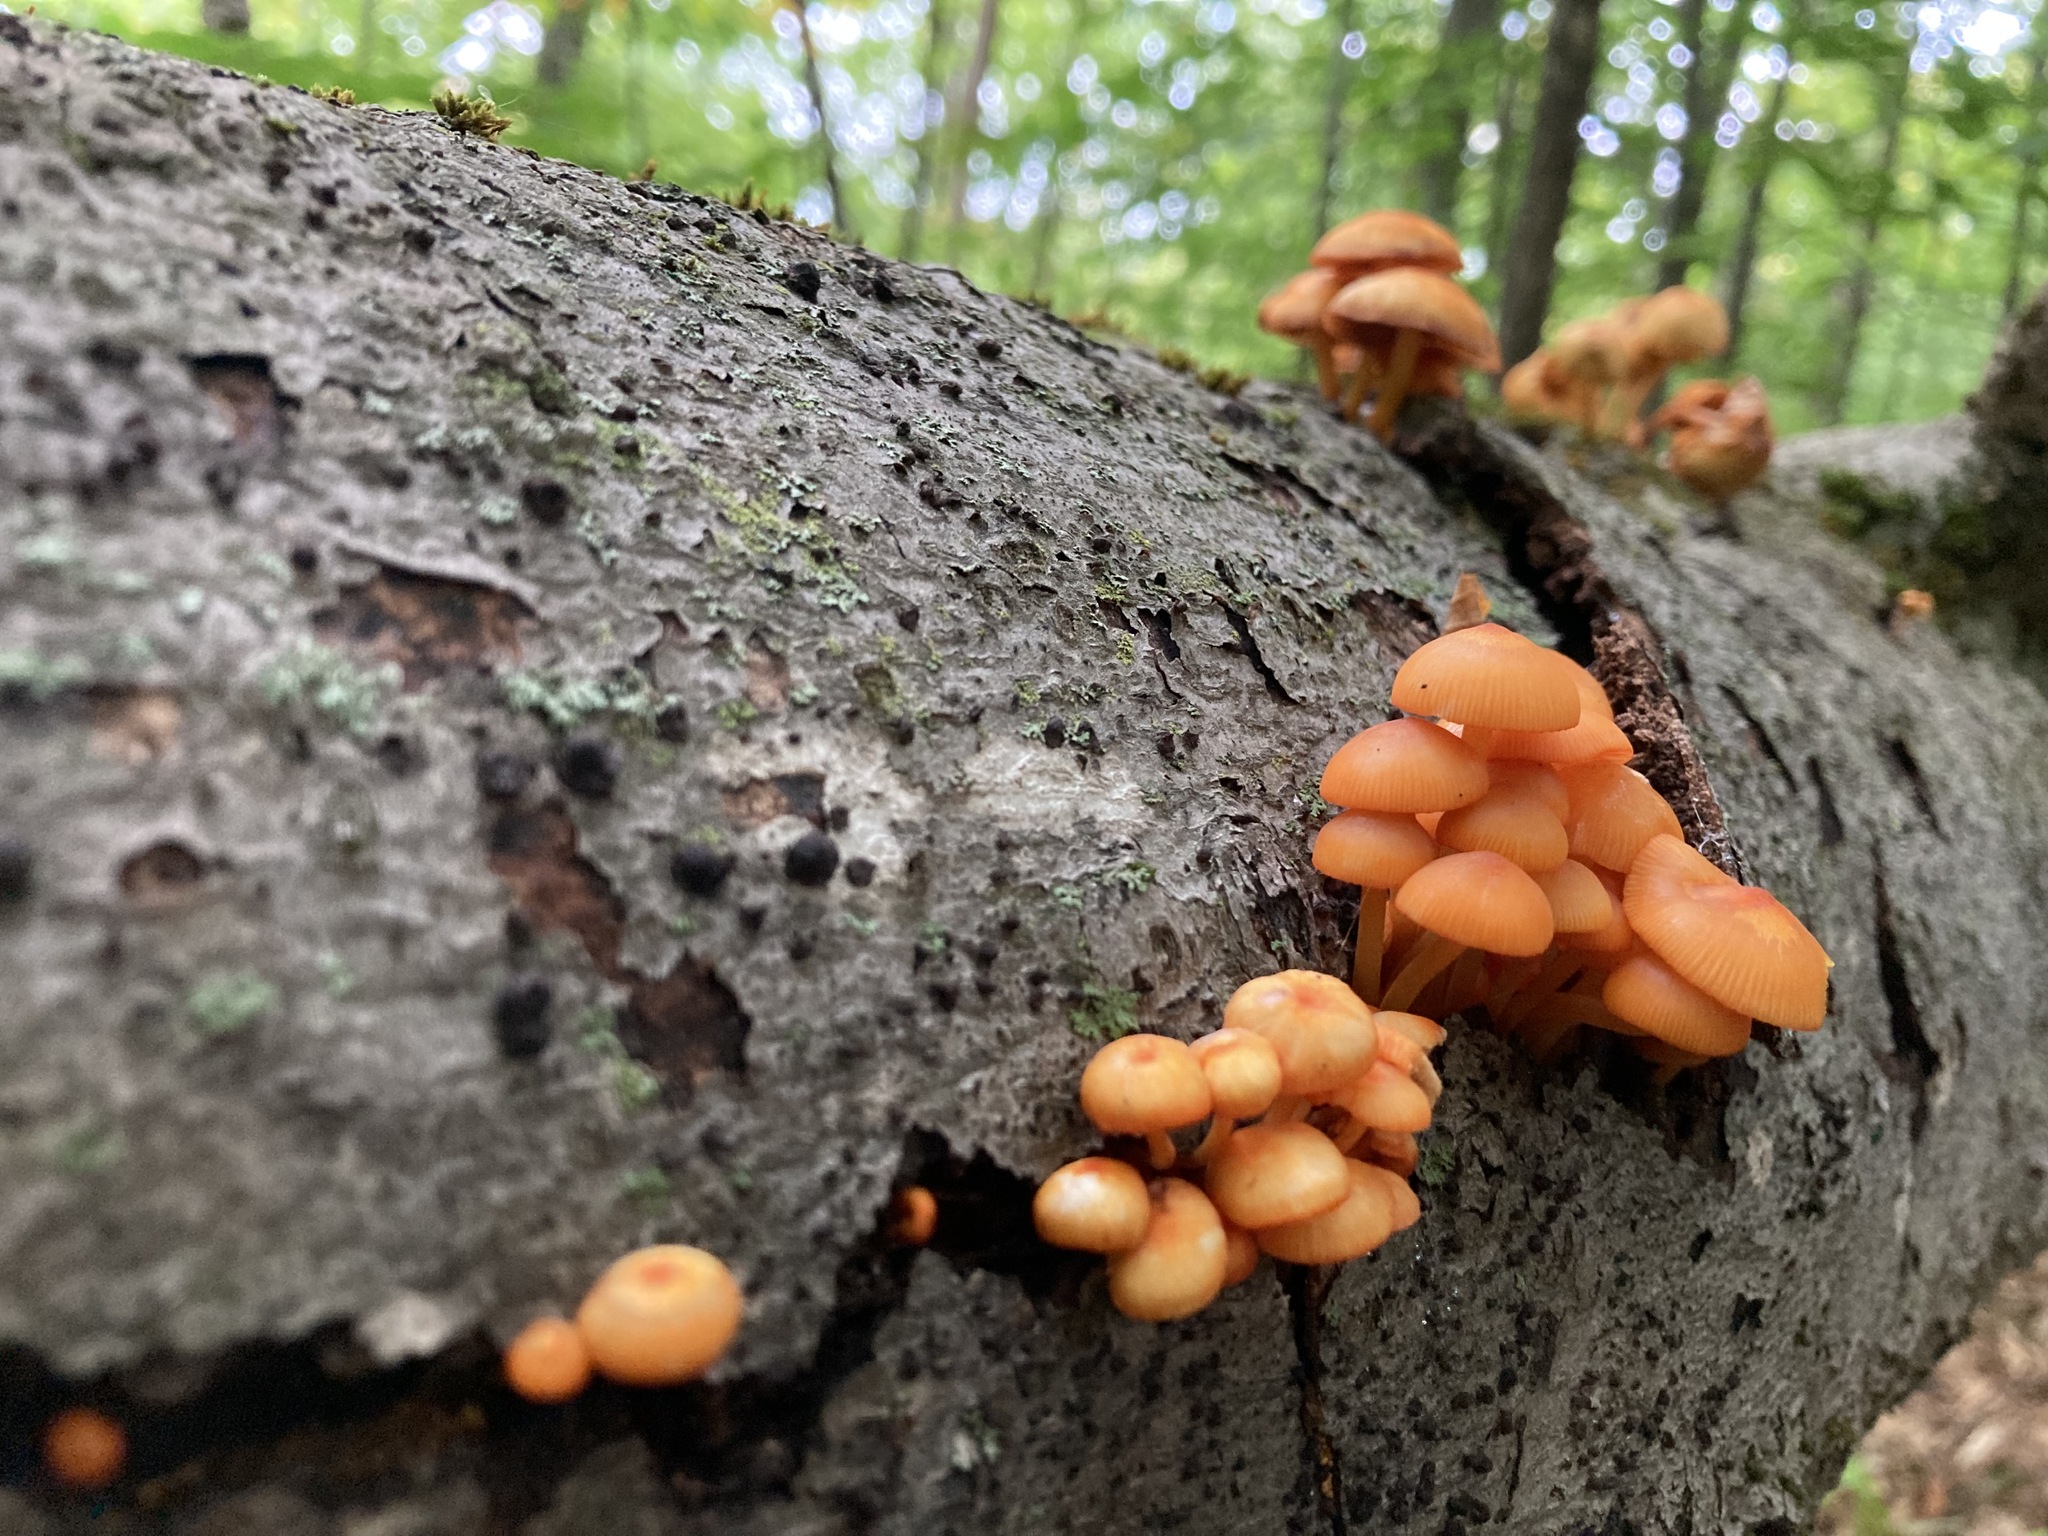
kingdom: Fungi
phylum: Basidiomycota
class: Agaricomycetes
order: Agaricales
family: Mycenaceae
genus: Mycena
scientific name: Mycena leaiana
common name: Orange mycena
